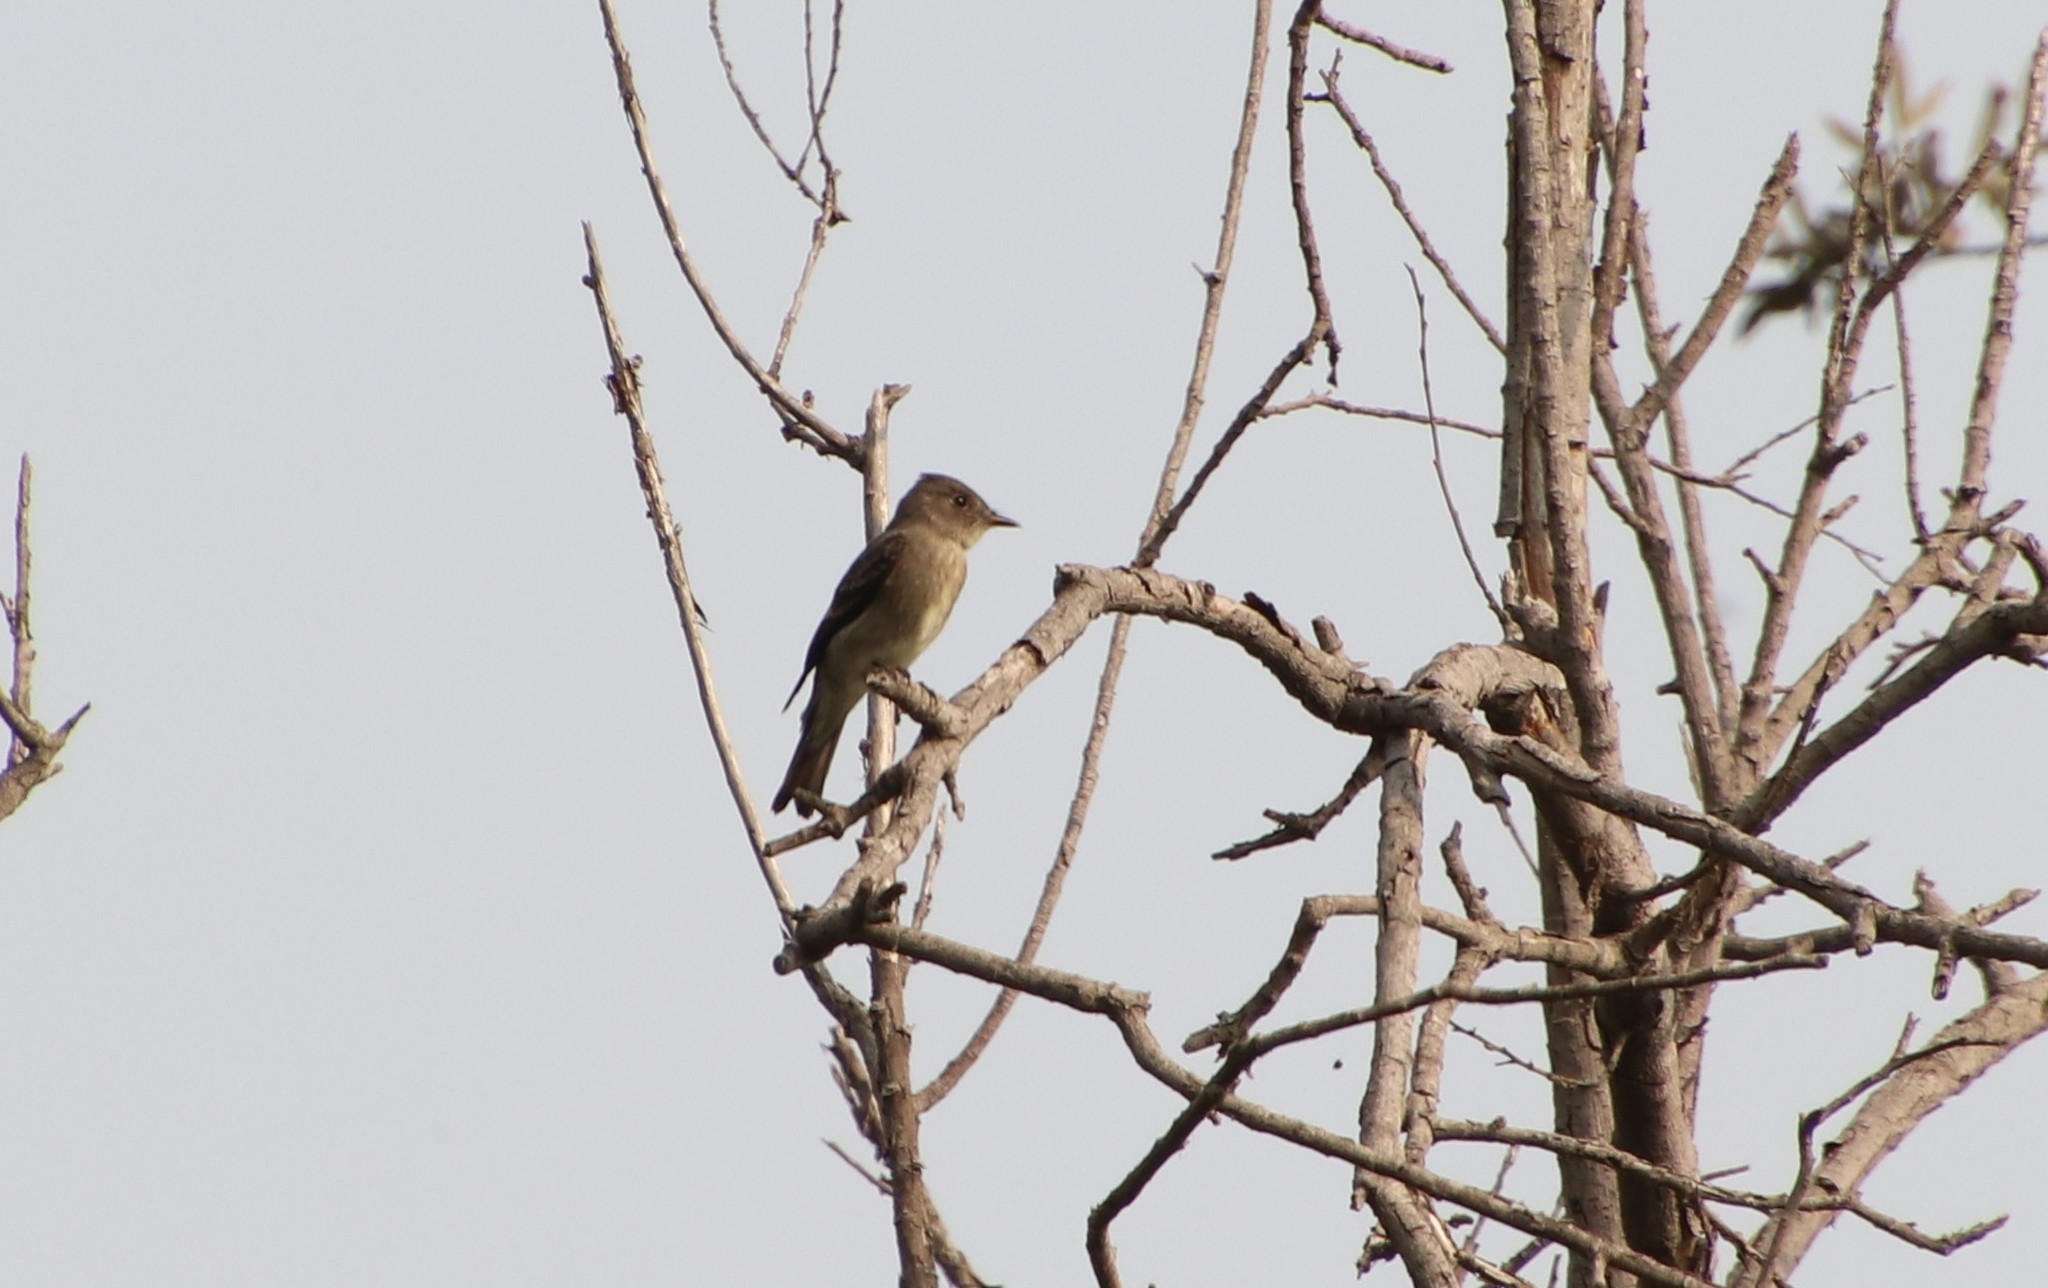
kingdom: Animalia
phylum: Chordata
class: Aves
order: Passeriformes
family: Tyrannidae
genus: Contopus
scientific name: Contopus sordidulus
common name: Western wood-pewee
